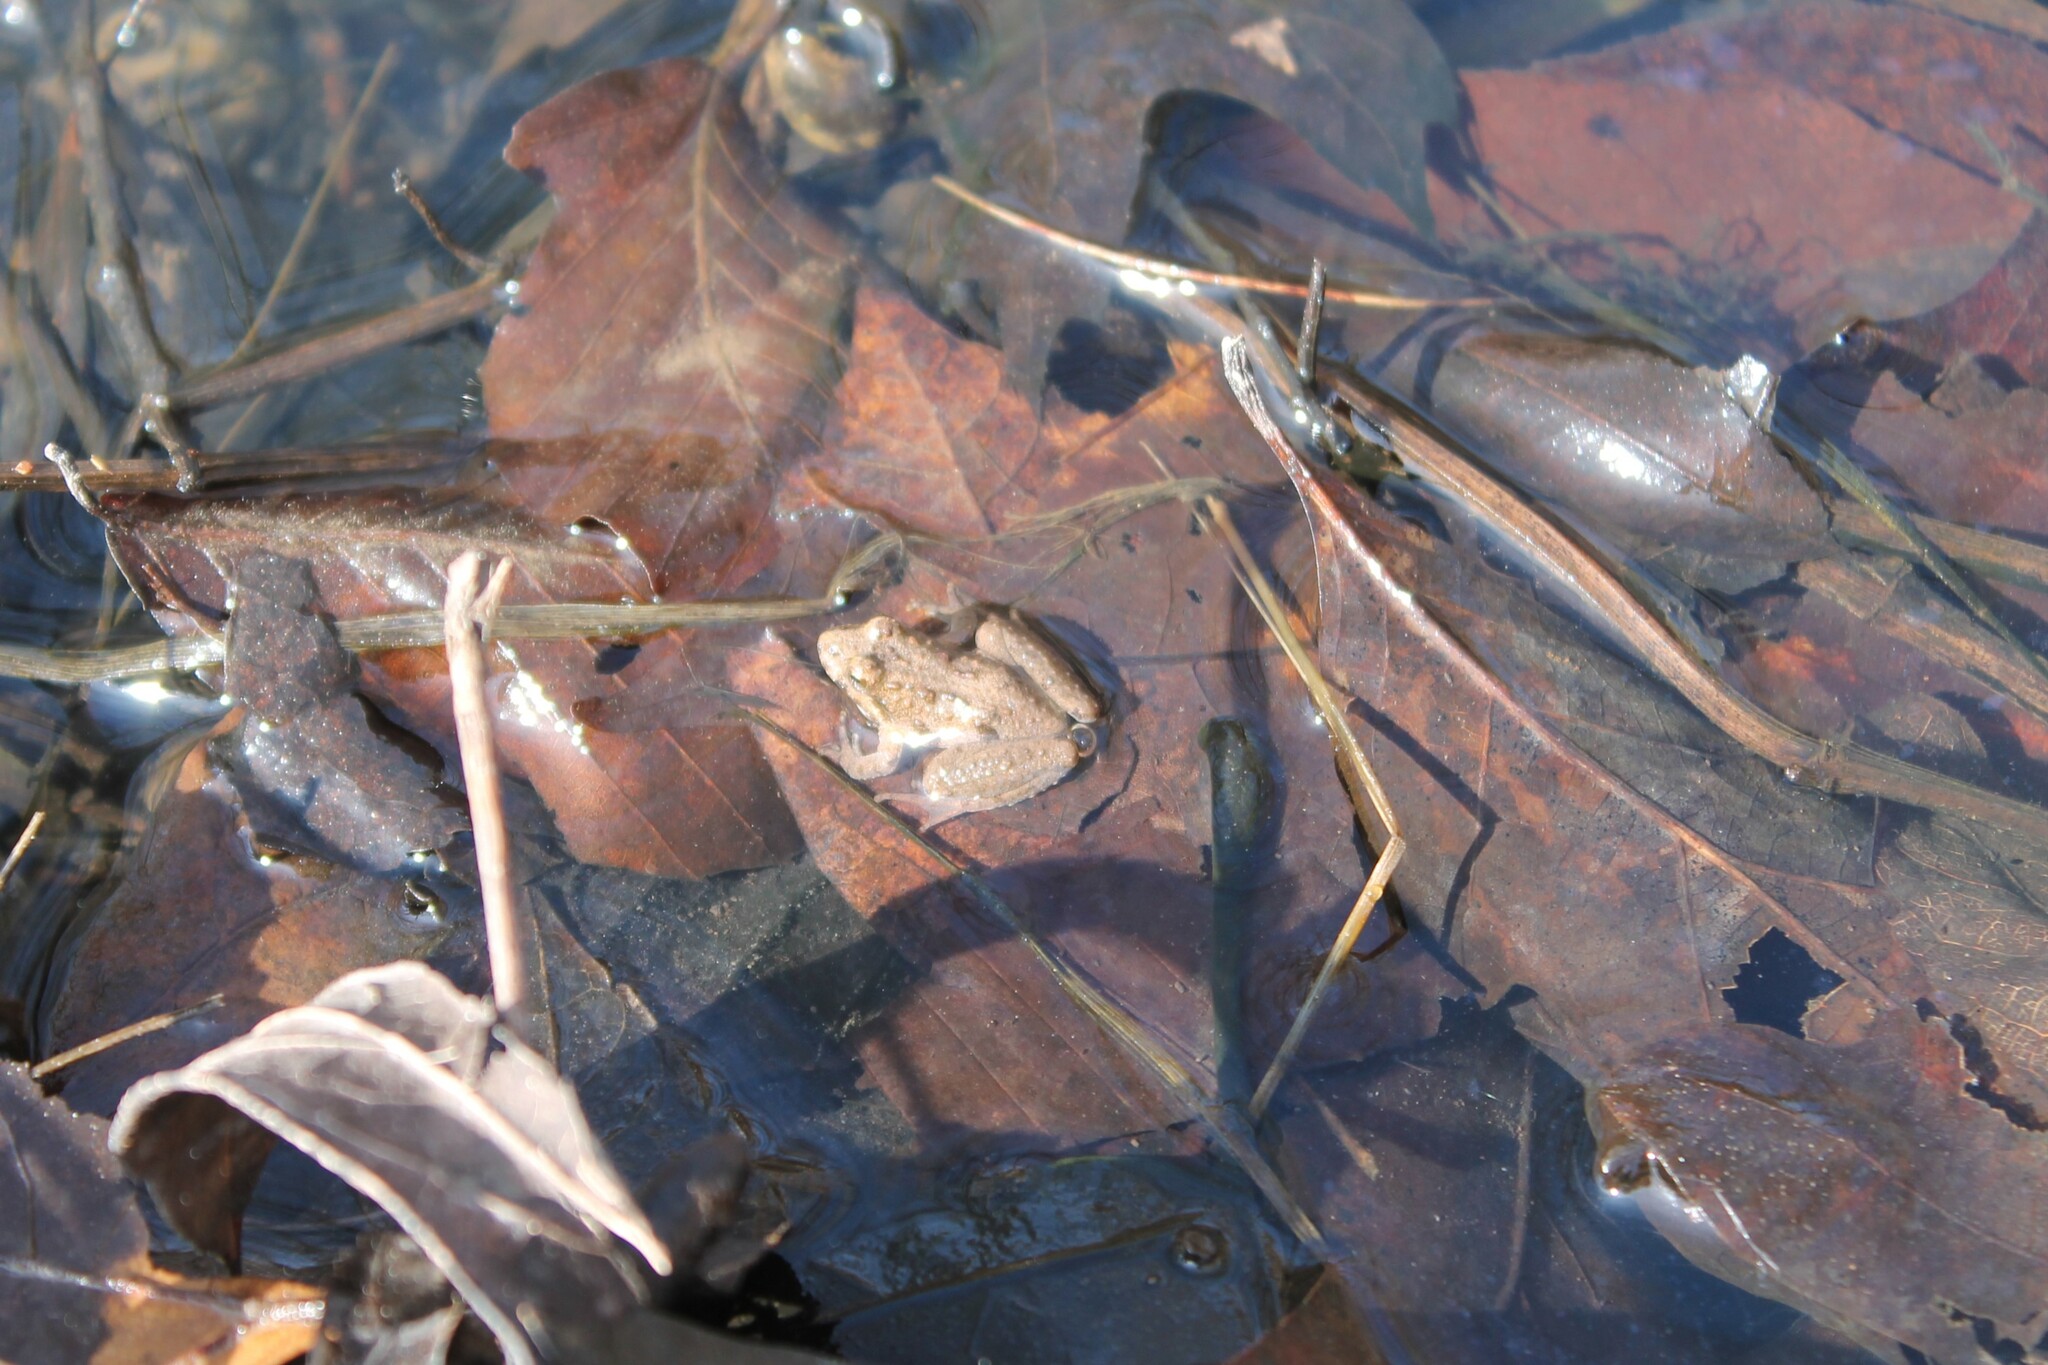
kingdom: Animalia
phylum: Chordata
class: Amphibia
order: Anura
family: Hylidae
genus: Acris
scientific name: Acris crepitans
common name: Northern cricket frog
